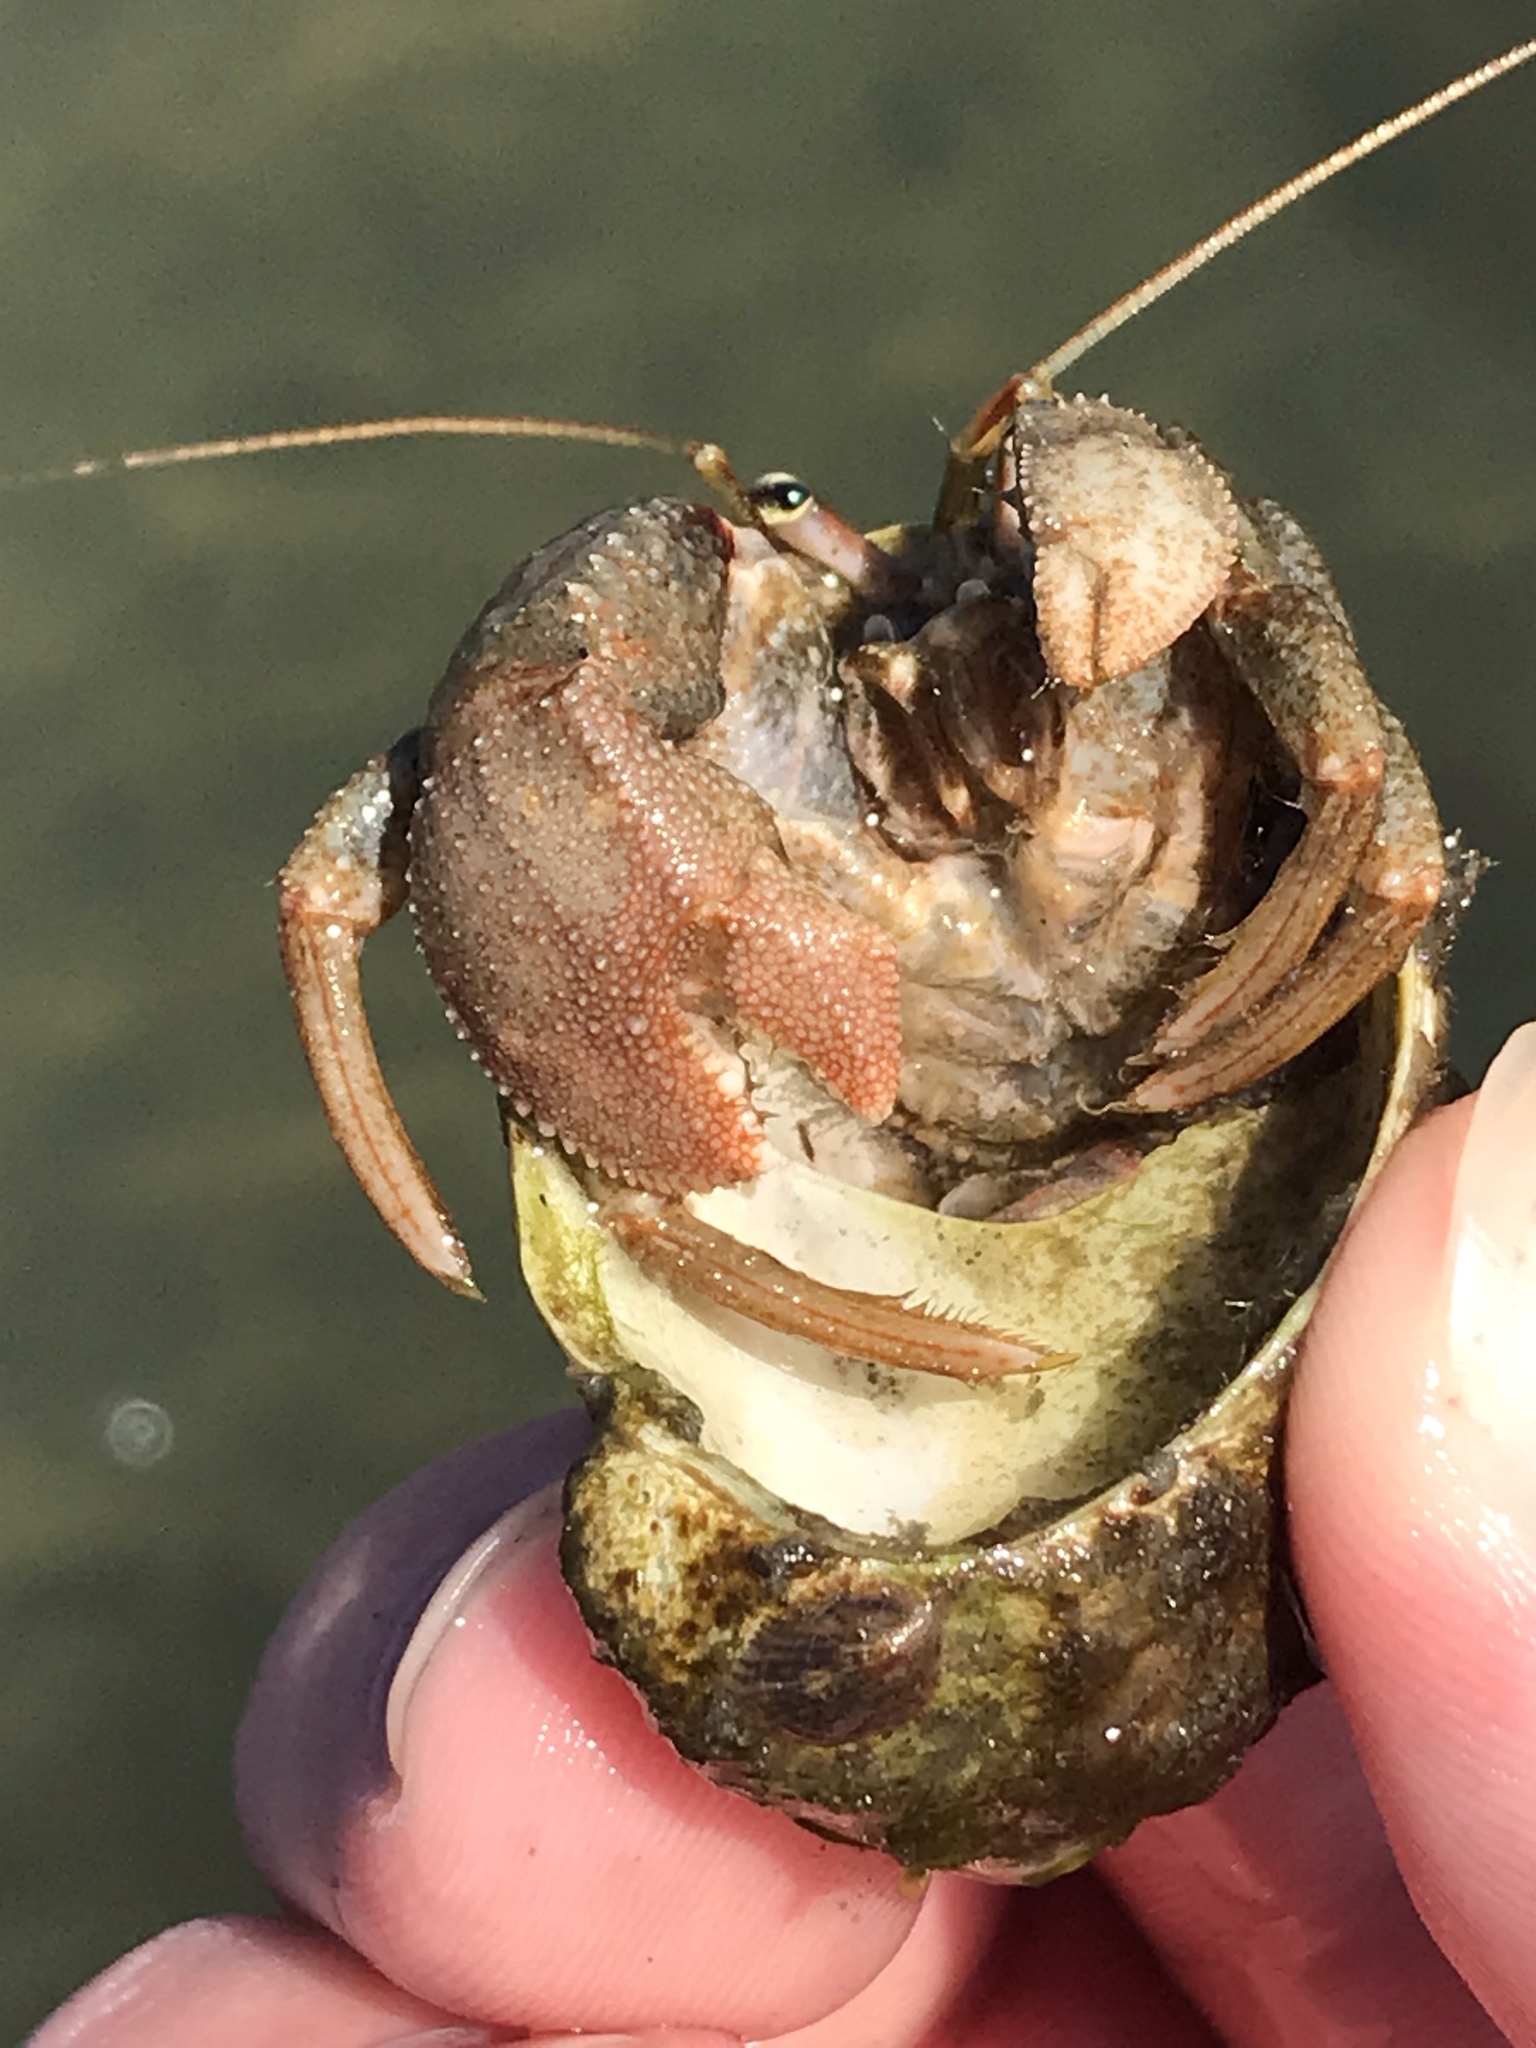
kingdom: Animalia
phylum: Arthropoda
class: Malacostraca
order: Decapoda
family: Paguridae
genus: Pagurus
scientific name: Pagurus pollicaris
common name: Flatclaw hermit
